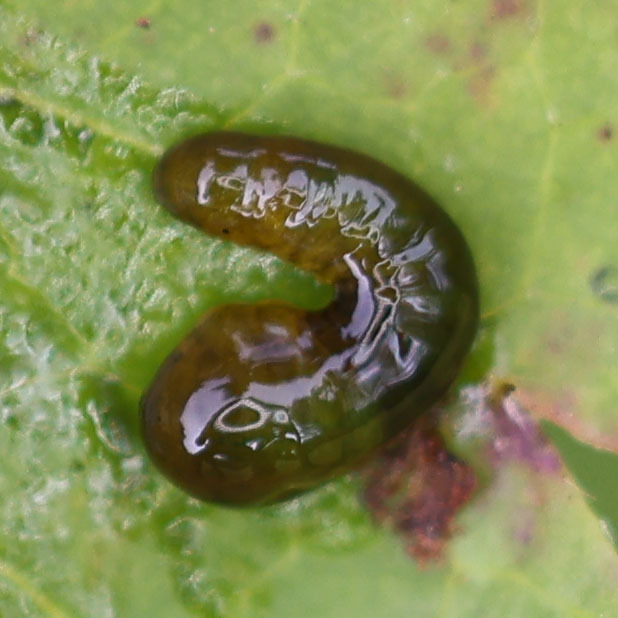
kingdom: Animalia
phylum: Arthropoda
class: Insecta
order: Hymenoptera
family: Tenthredinidae
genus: Caliroa
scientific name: Caliroa cerasi
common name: Pear sawfly
